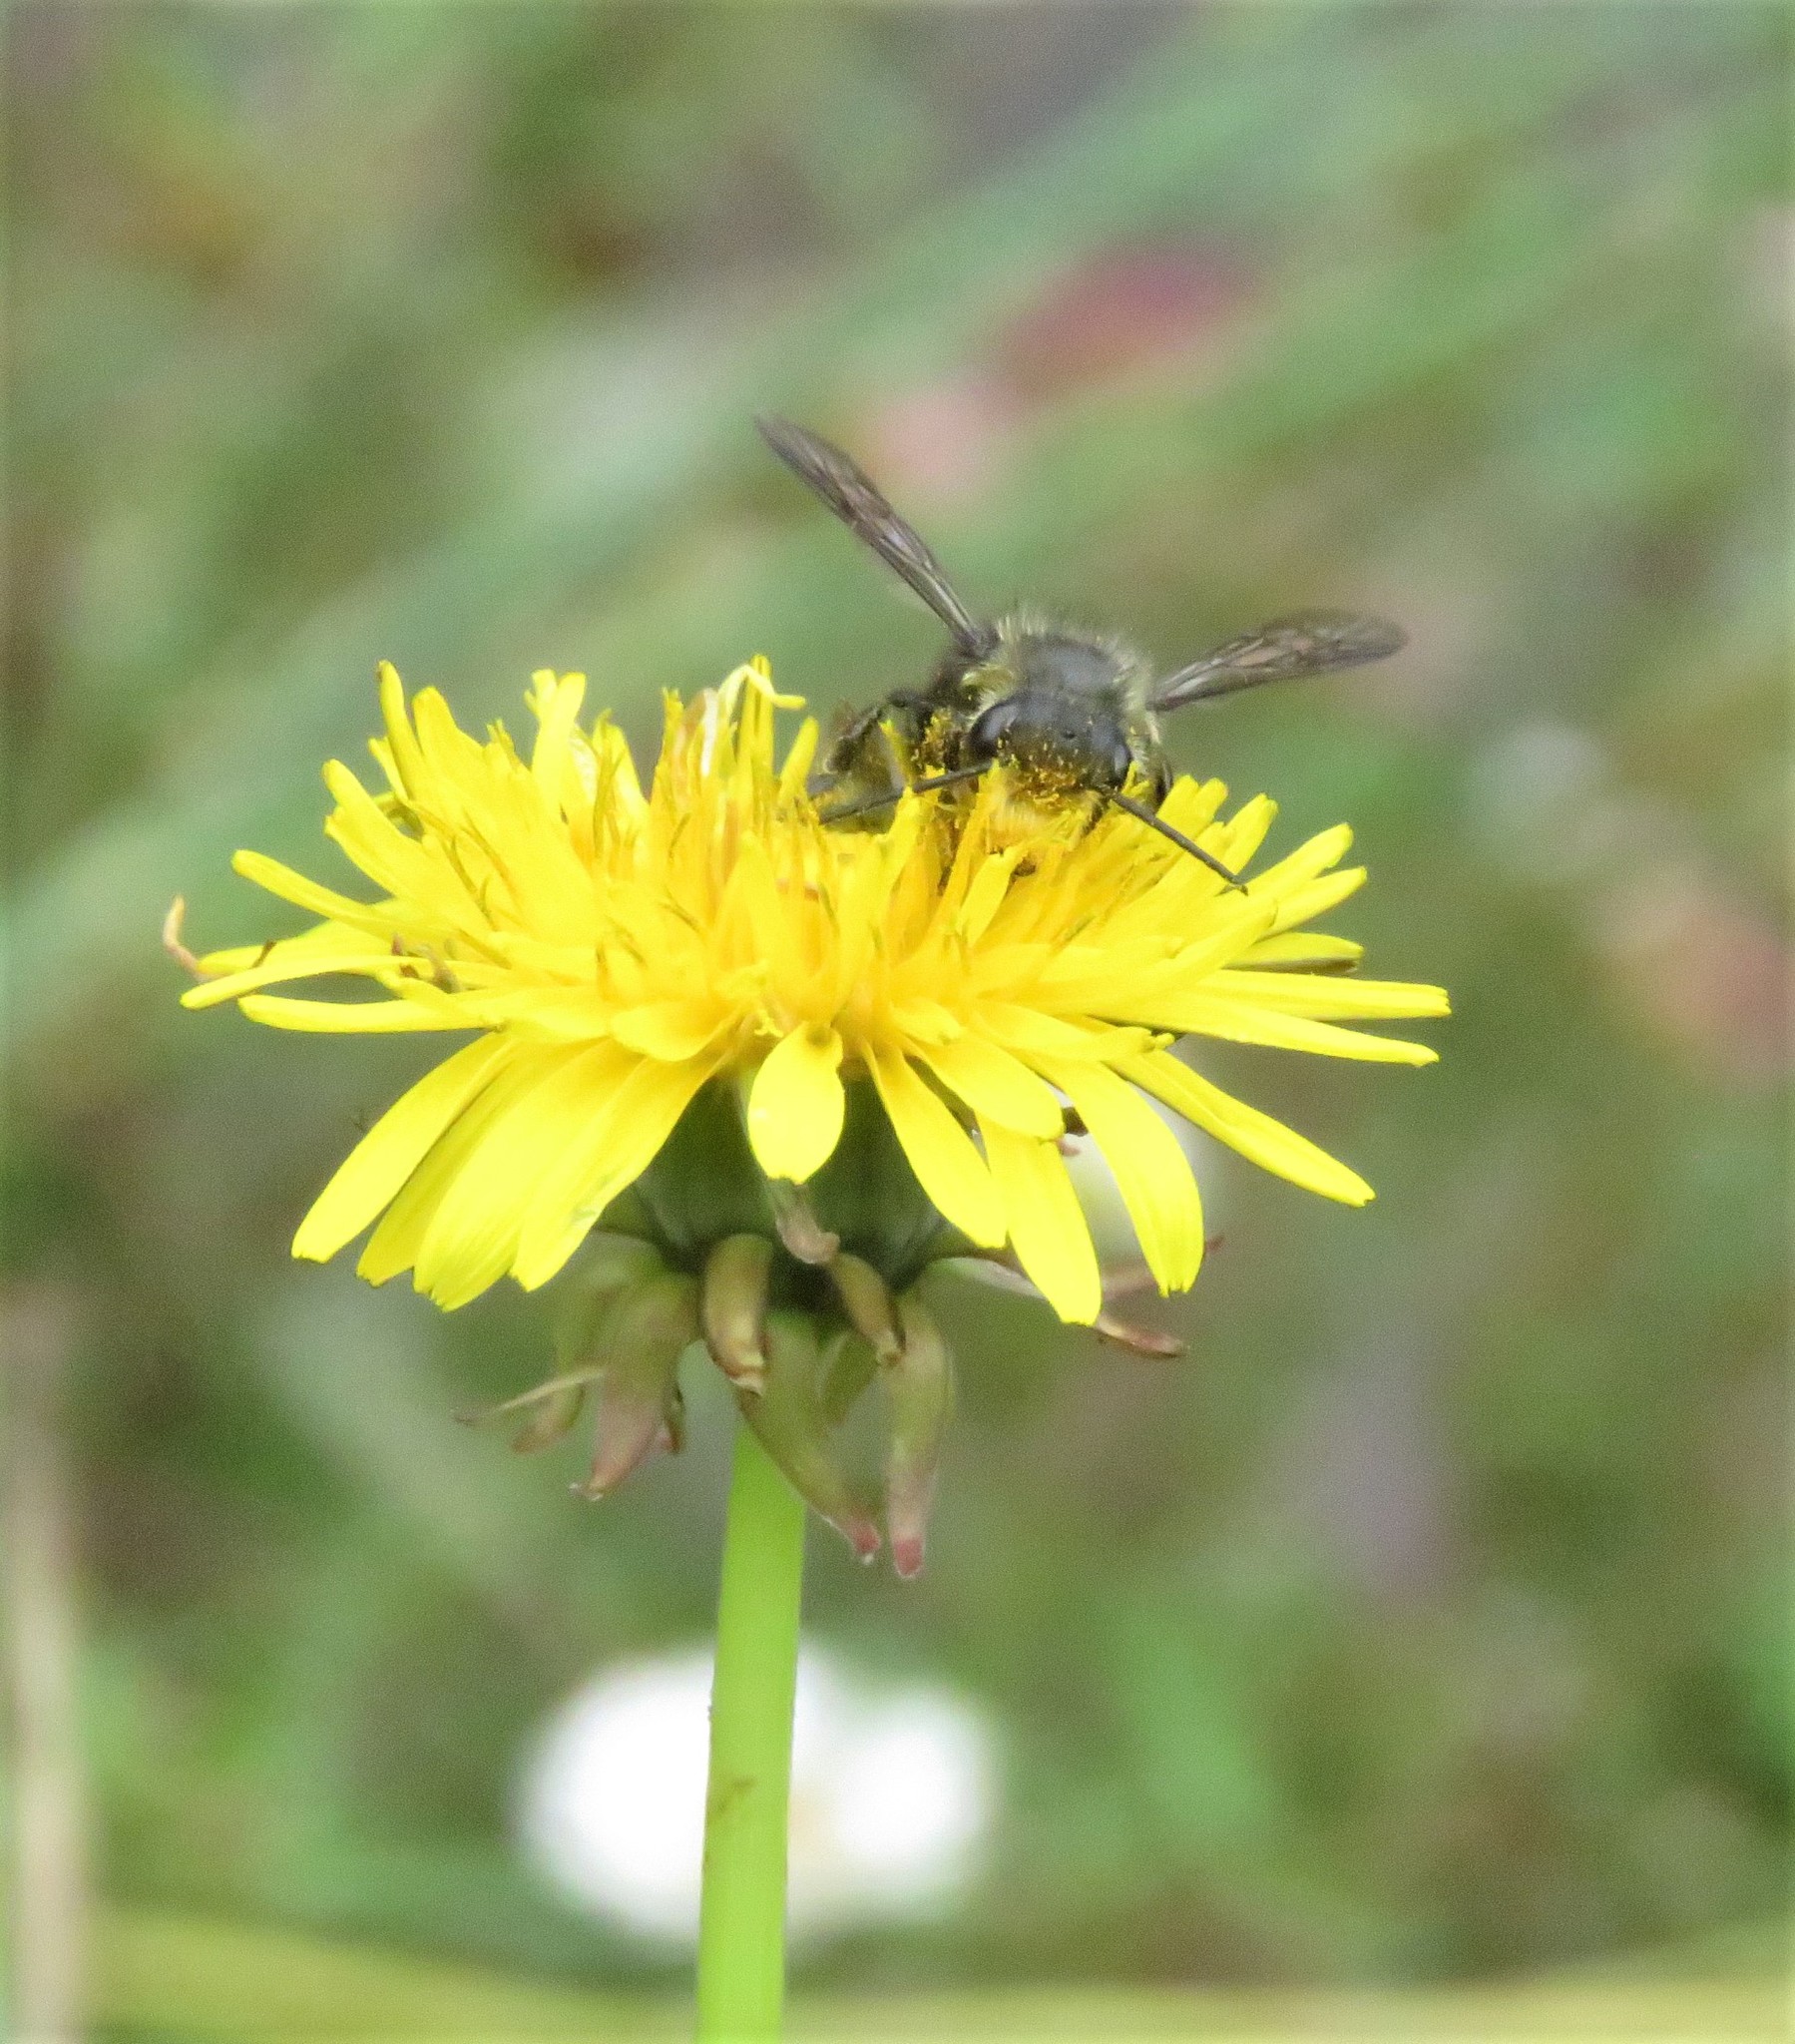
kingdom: Animalia
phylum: Arthropoda
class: Insecta
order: Hymenoptera
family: Megachilidae
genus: Megachile
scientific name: Megachile amparo
